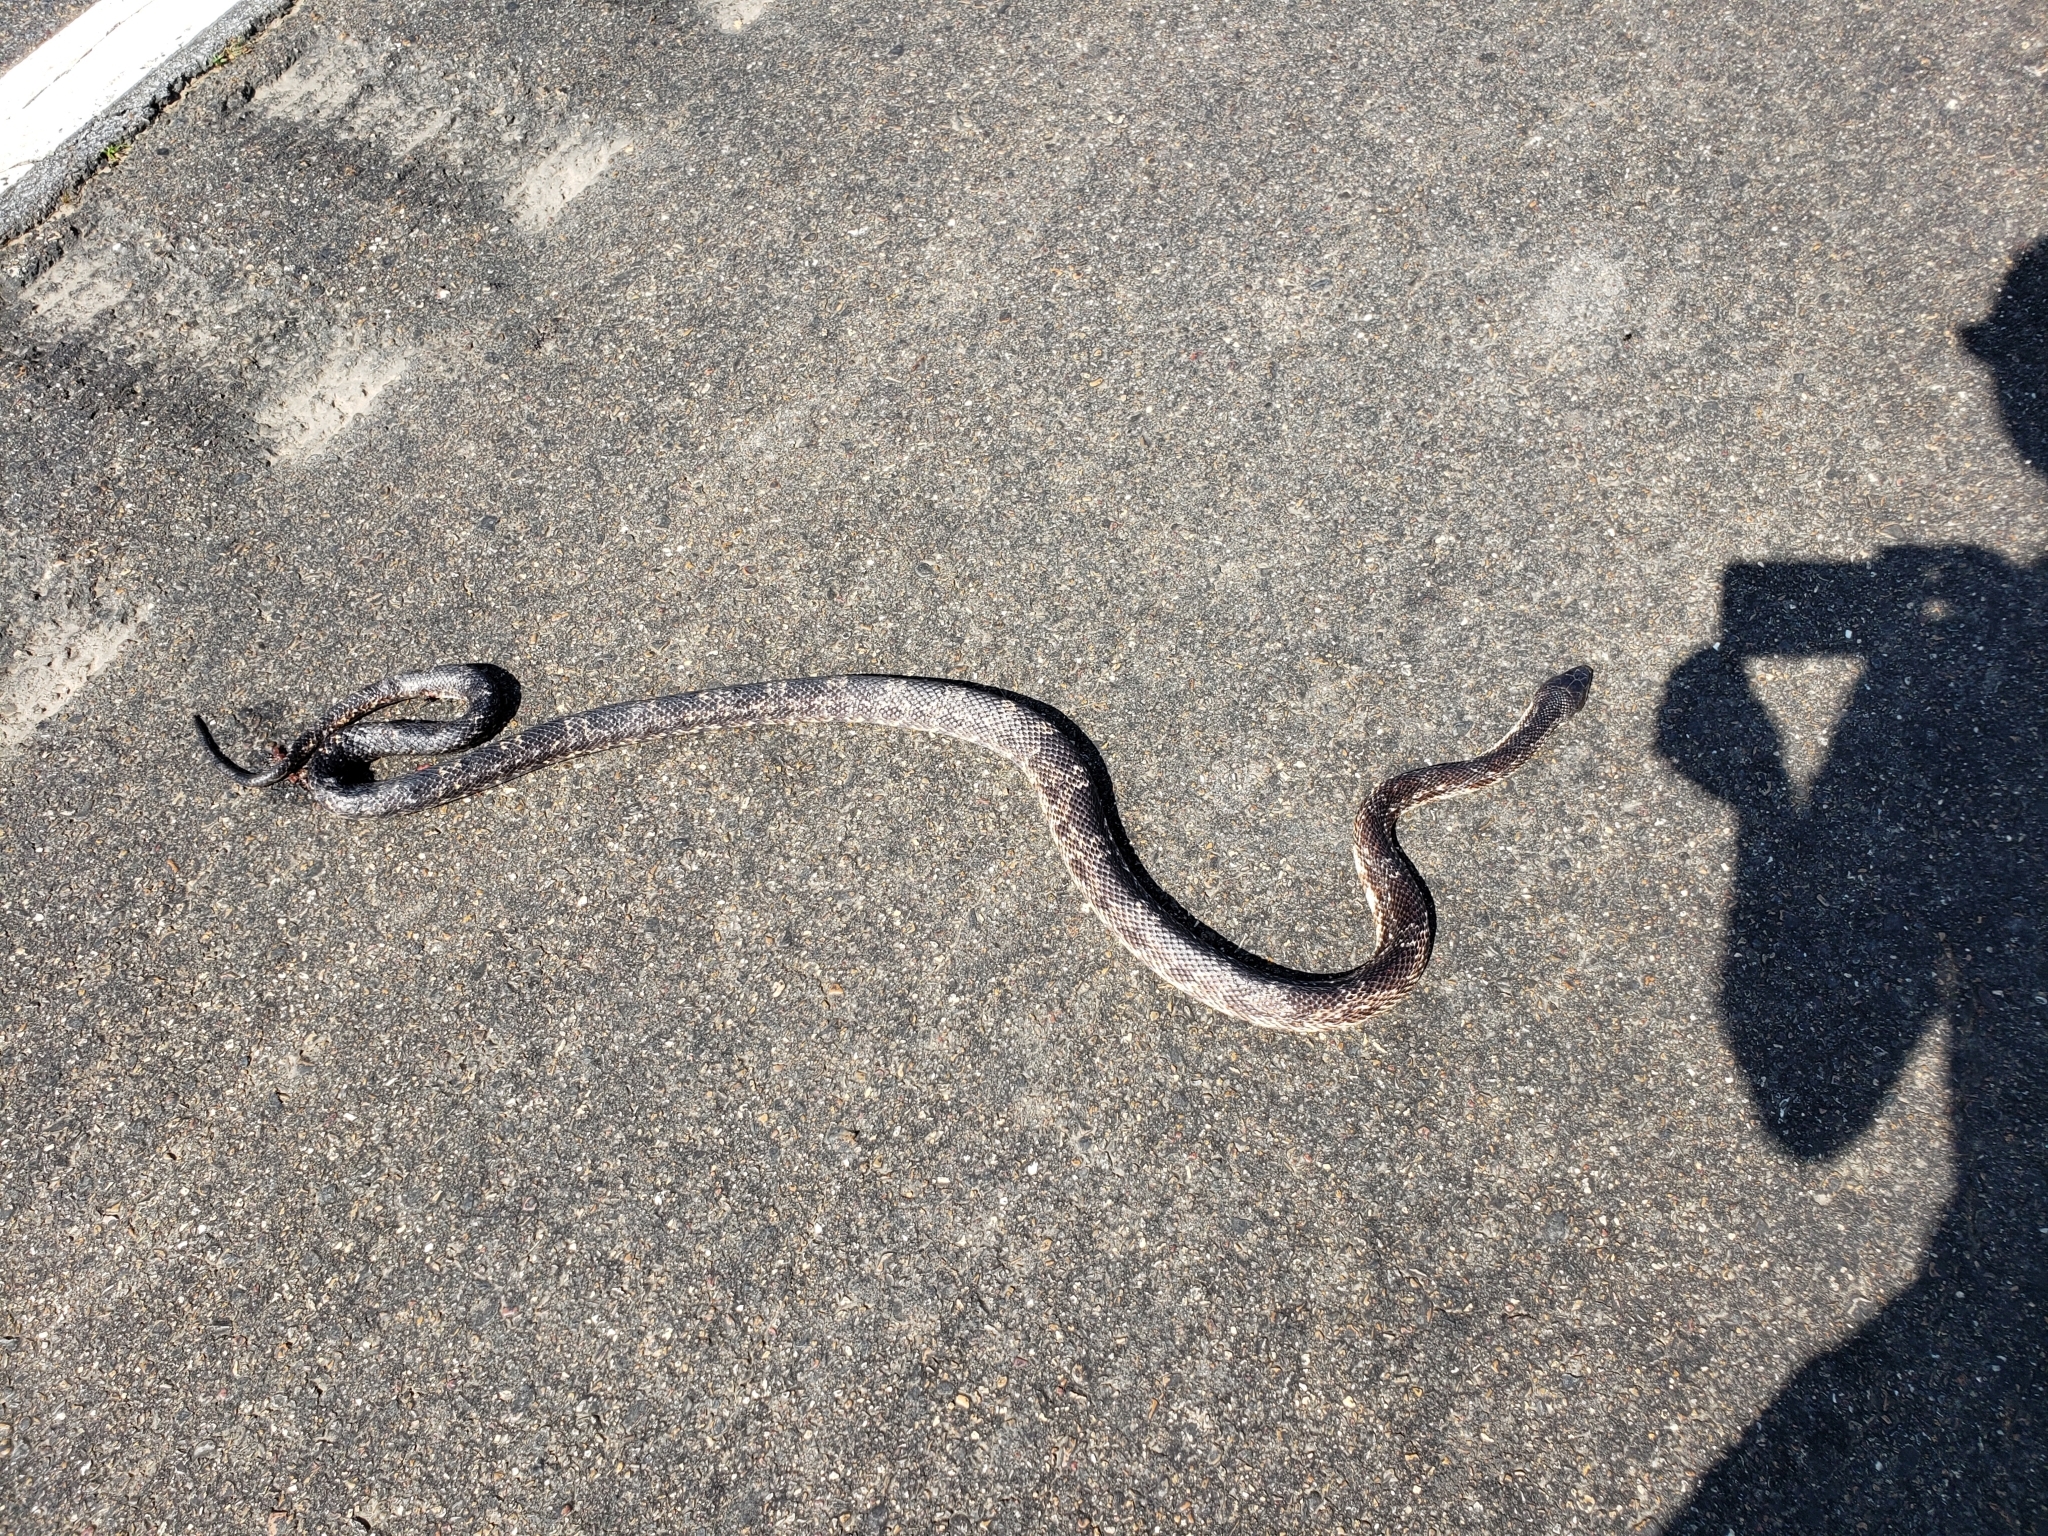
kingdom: Animalia
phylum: Chordata
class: Squamata
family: Colubridae
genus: Pantherophis
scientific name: Pantherophis obsoletus
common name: Black rat snake
